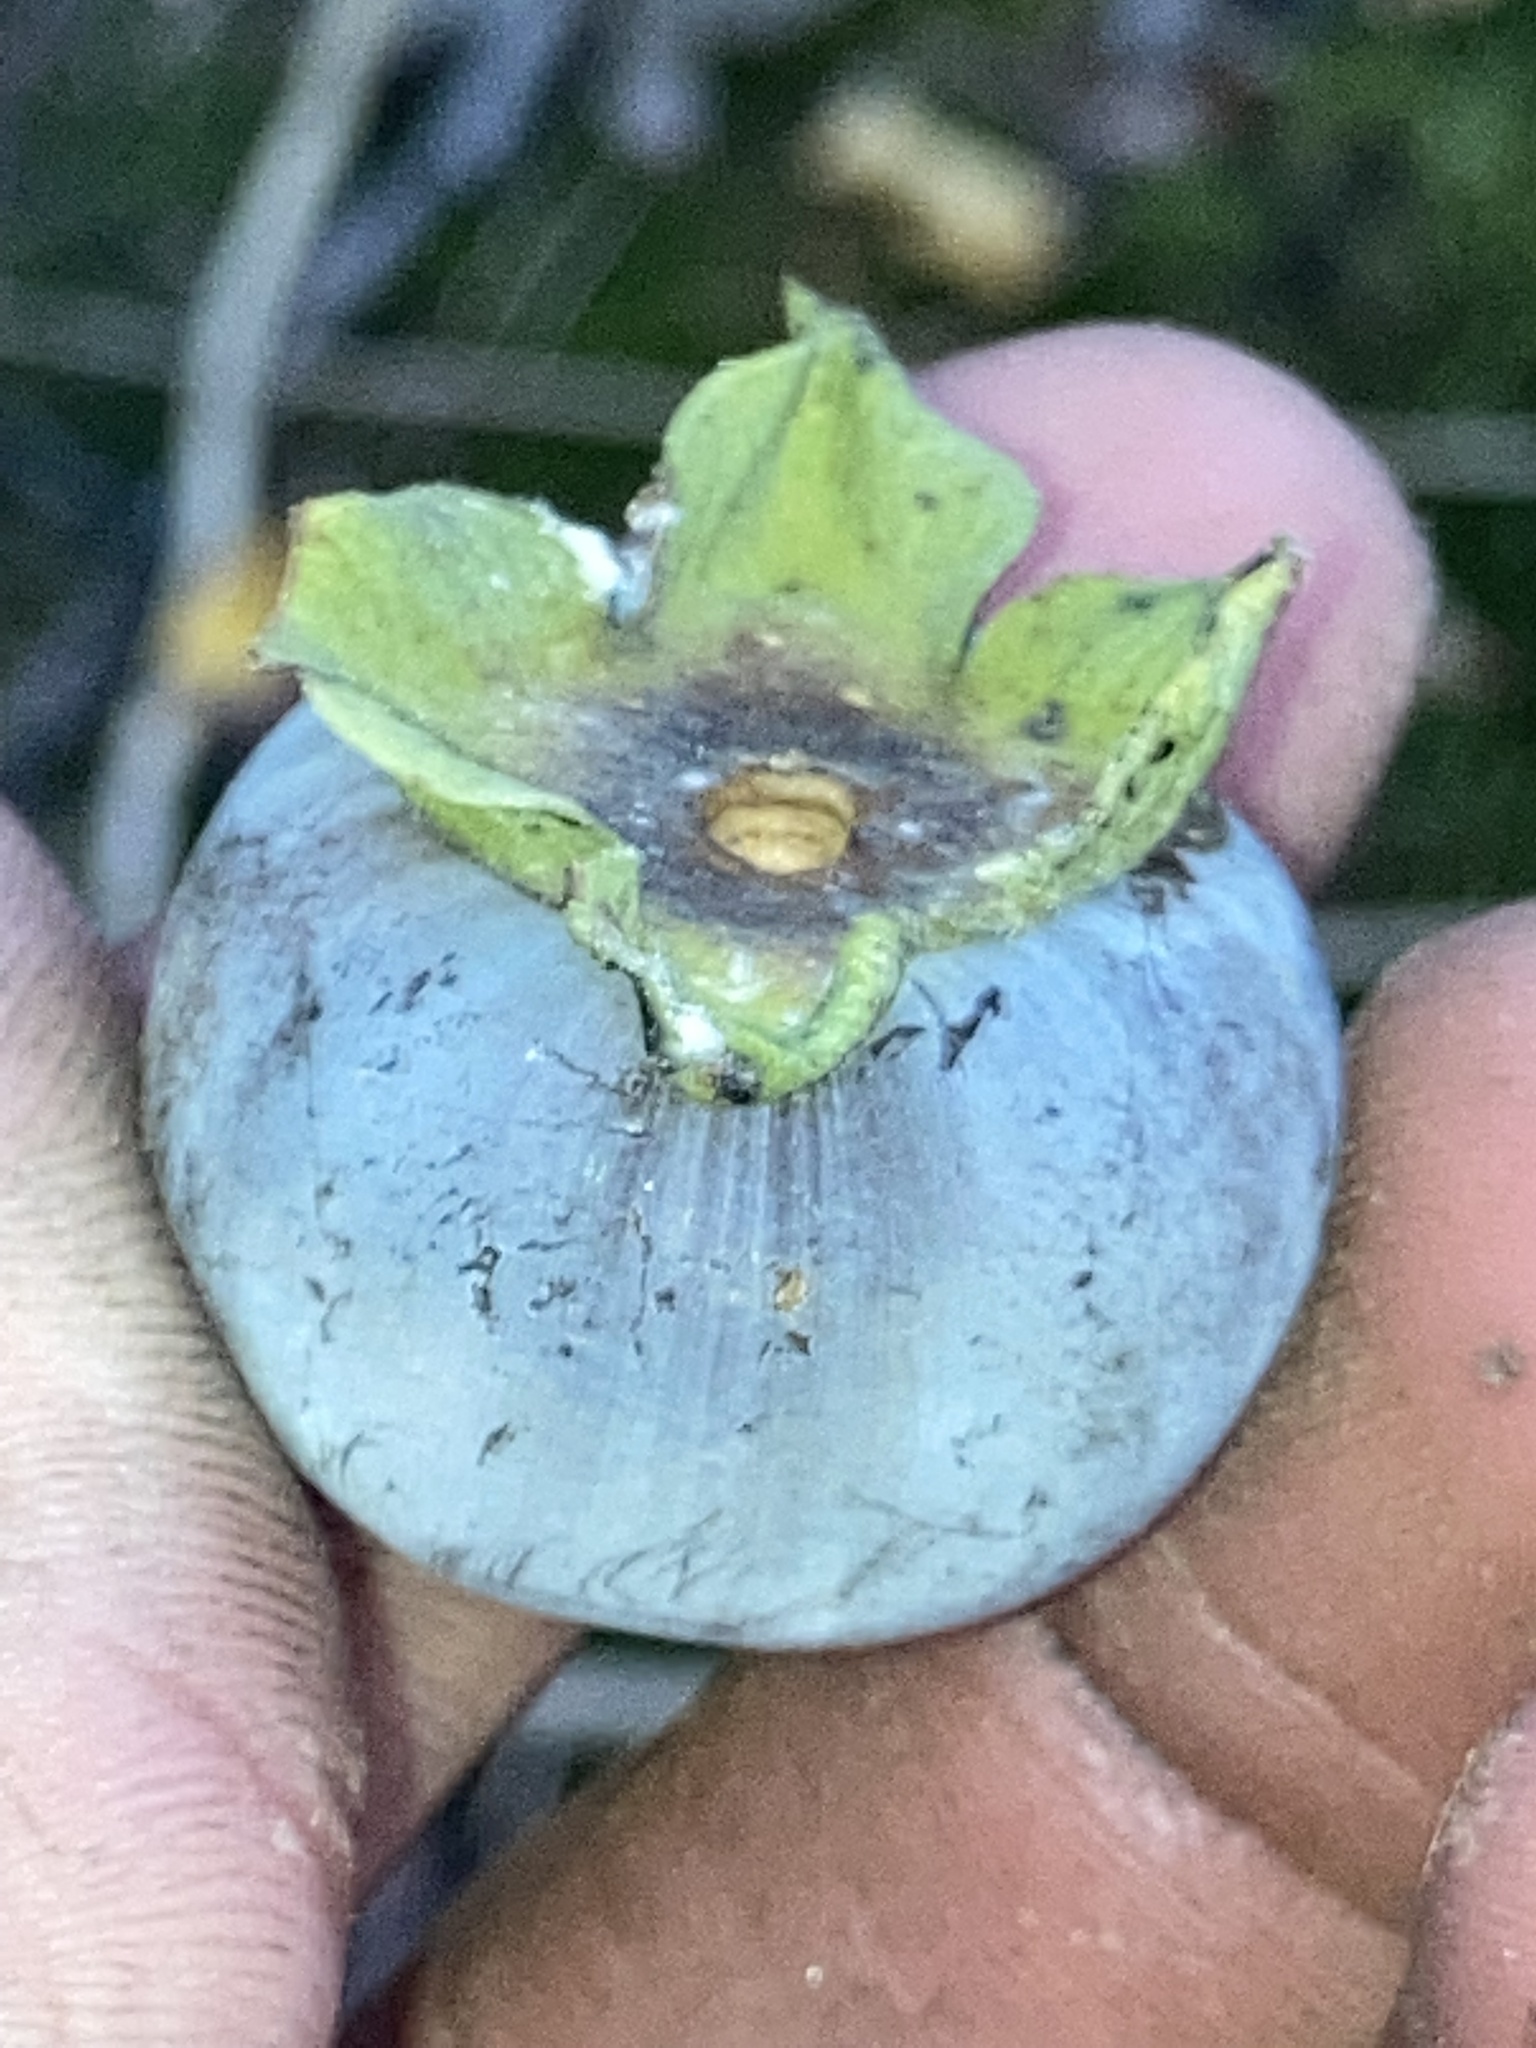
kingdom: Plantae
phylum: Tracheophyta
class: Magnoliopsida
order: Ericales
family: Ebenaceae
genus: Diospyros
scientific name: Diospyros virginiana
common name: Persimmon
